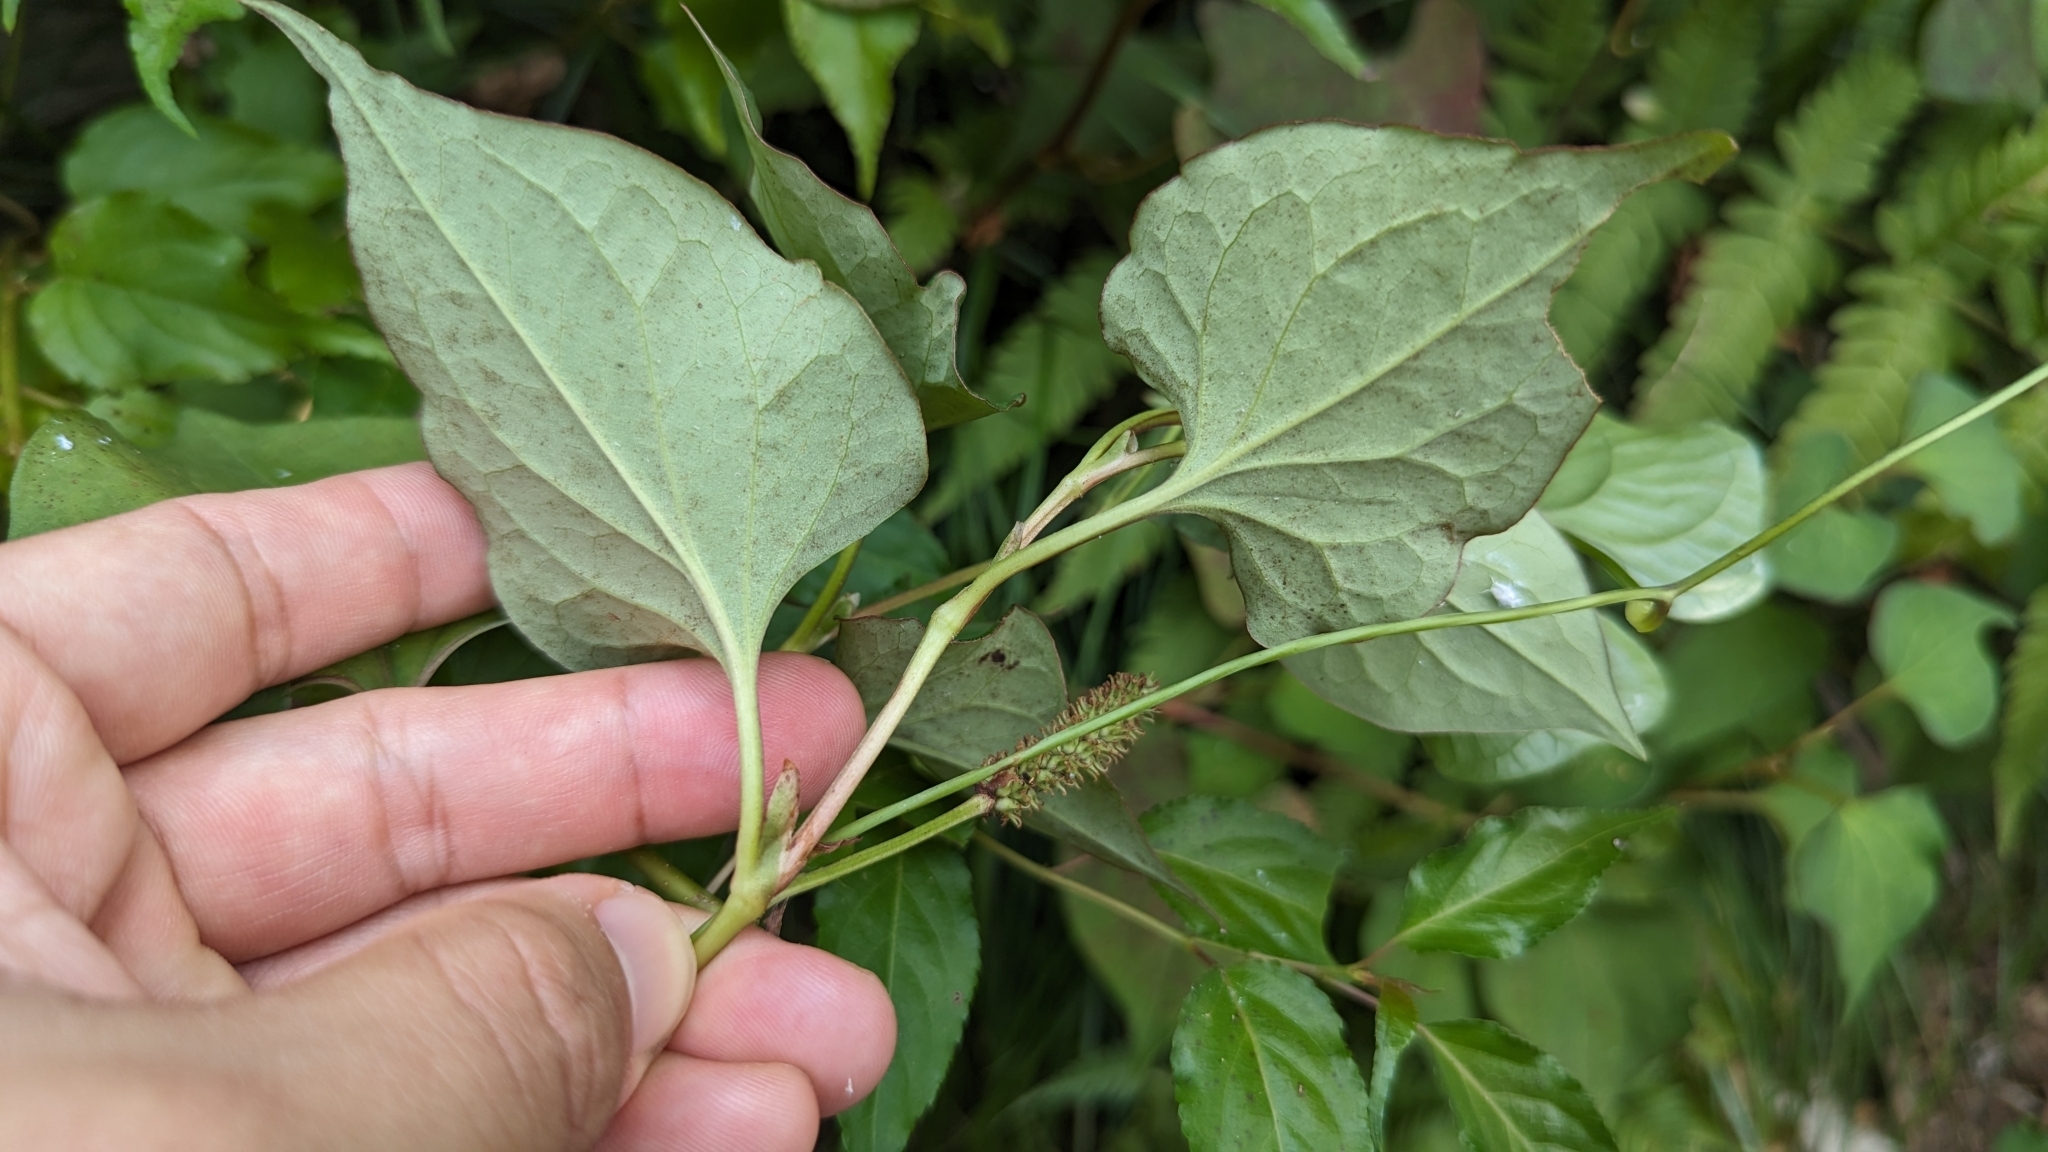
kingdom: Plantae
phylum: Tracheophyta
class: Magnoliopsida
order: Piperales
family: Saururaceae
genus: Houttuynia
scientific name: Houttuynia cordata
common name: Chameleon
